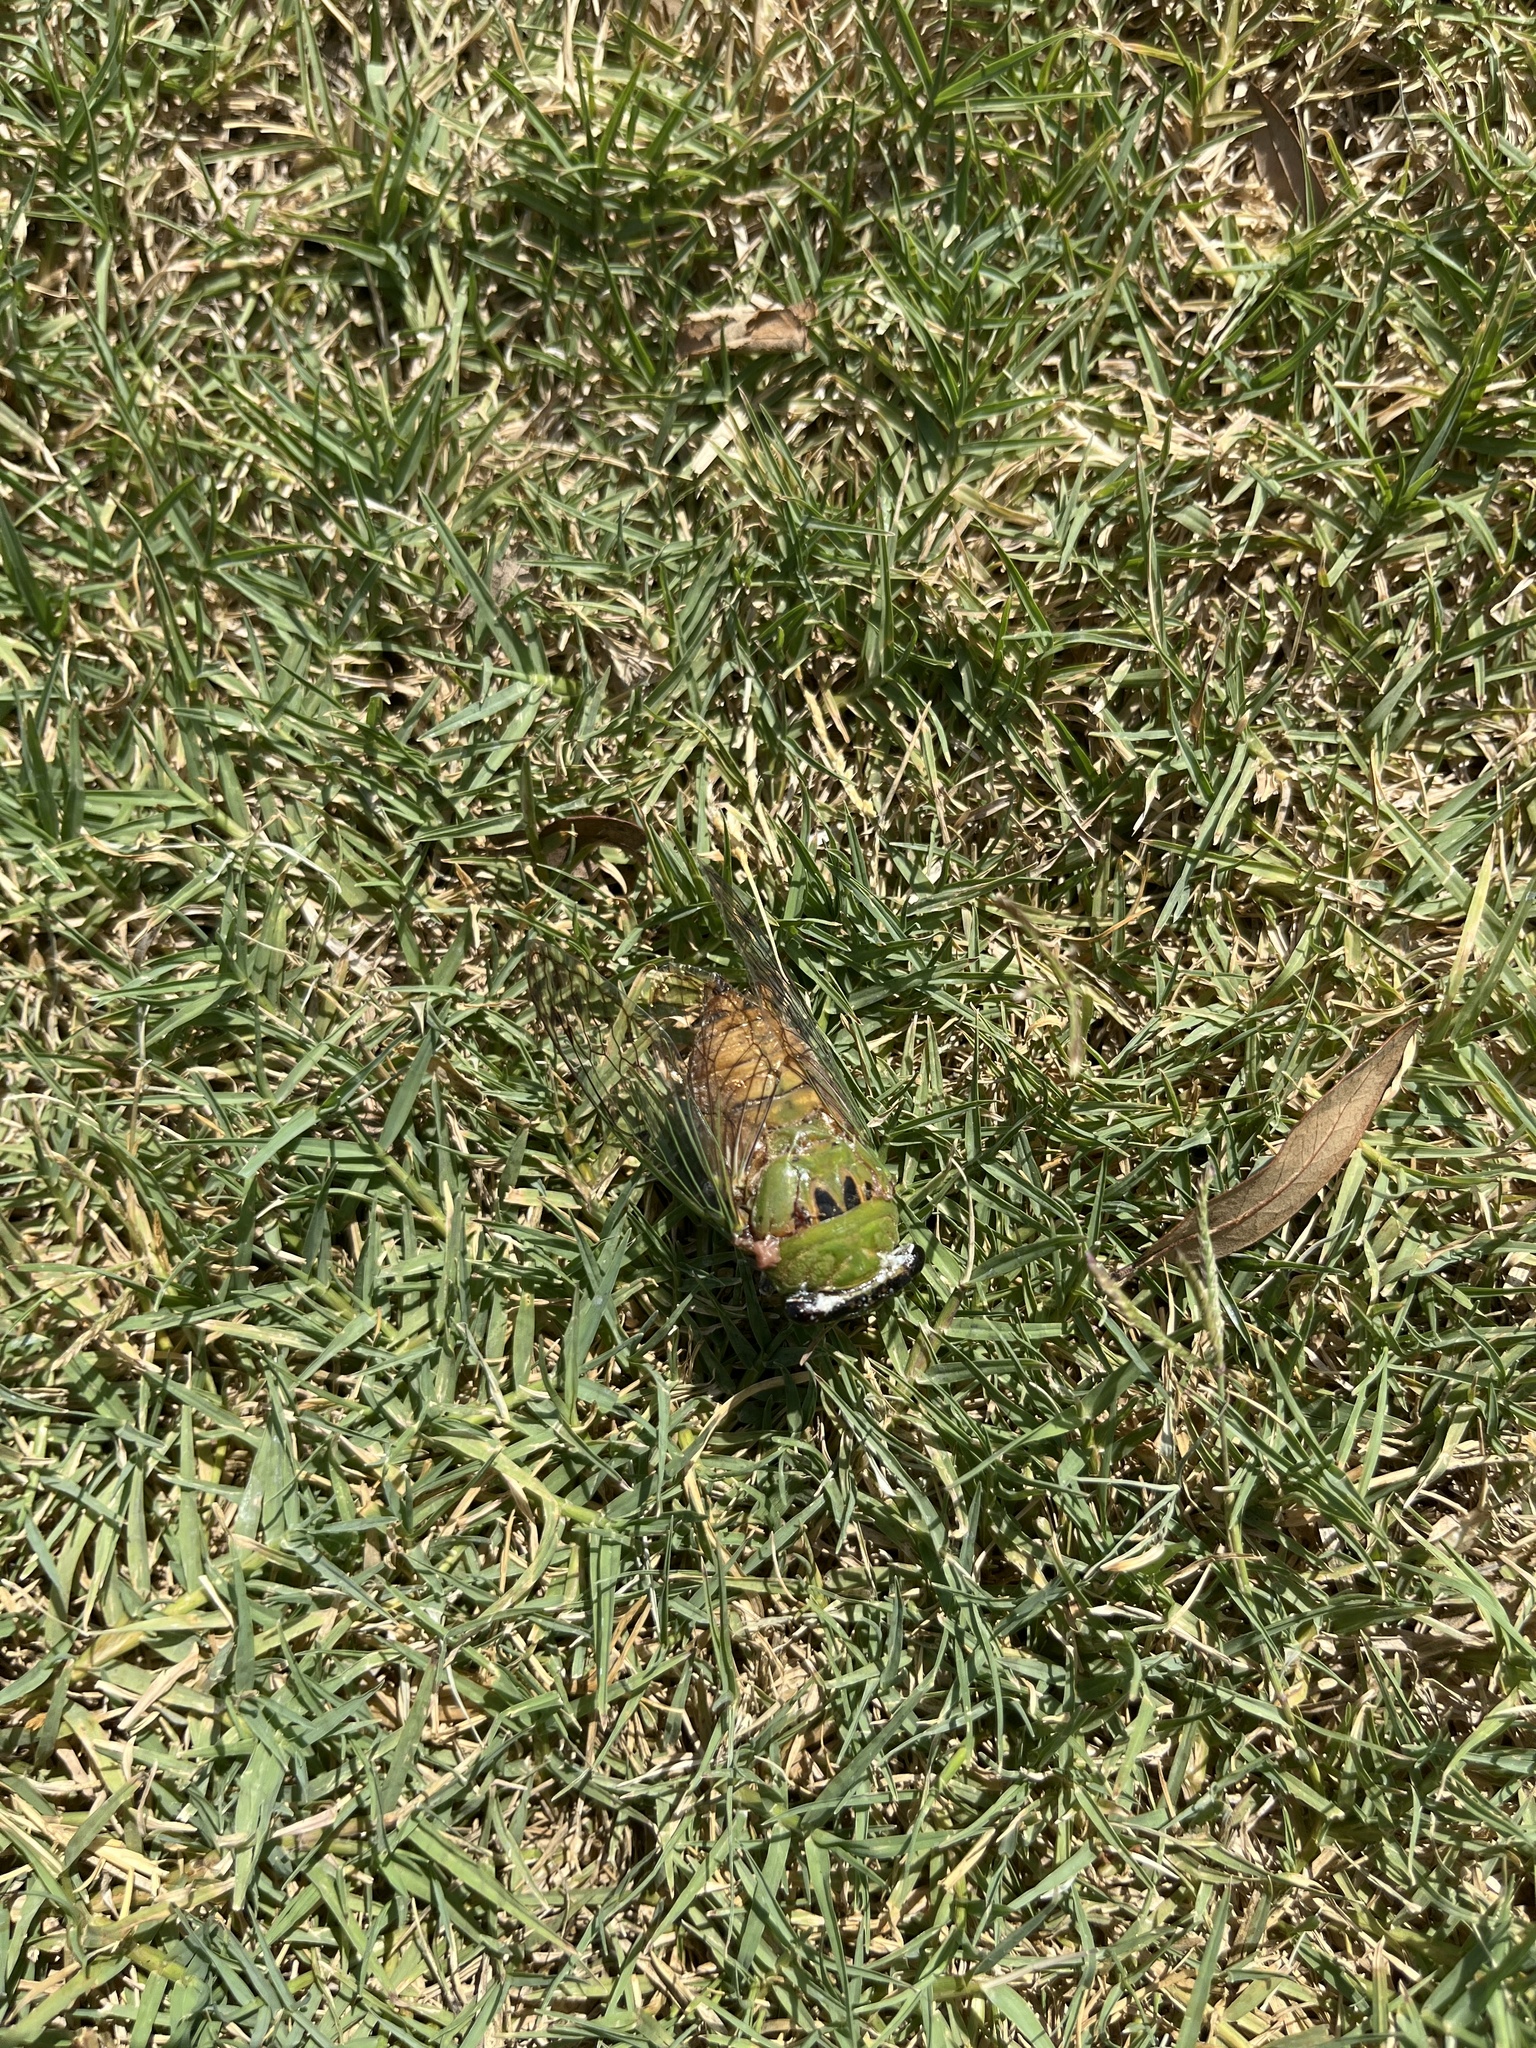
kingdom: Animalia
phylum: Arthropoda
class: Insecta
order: Hemiptera
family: Cicadidae
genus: Neotibicen
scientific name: Neotibicen superbus
